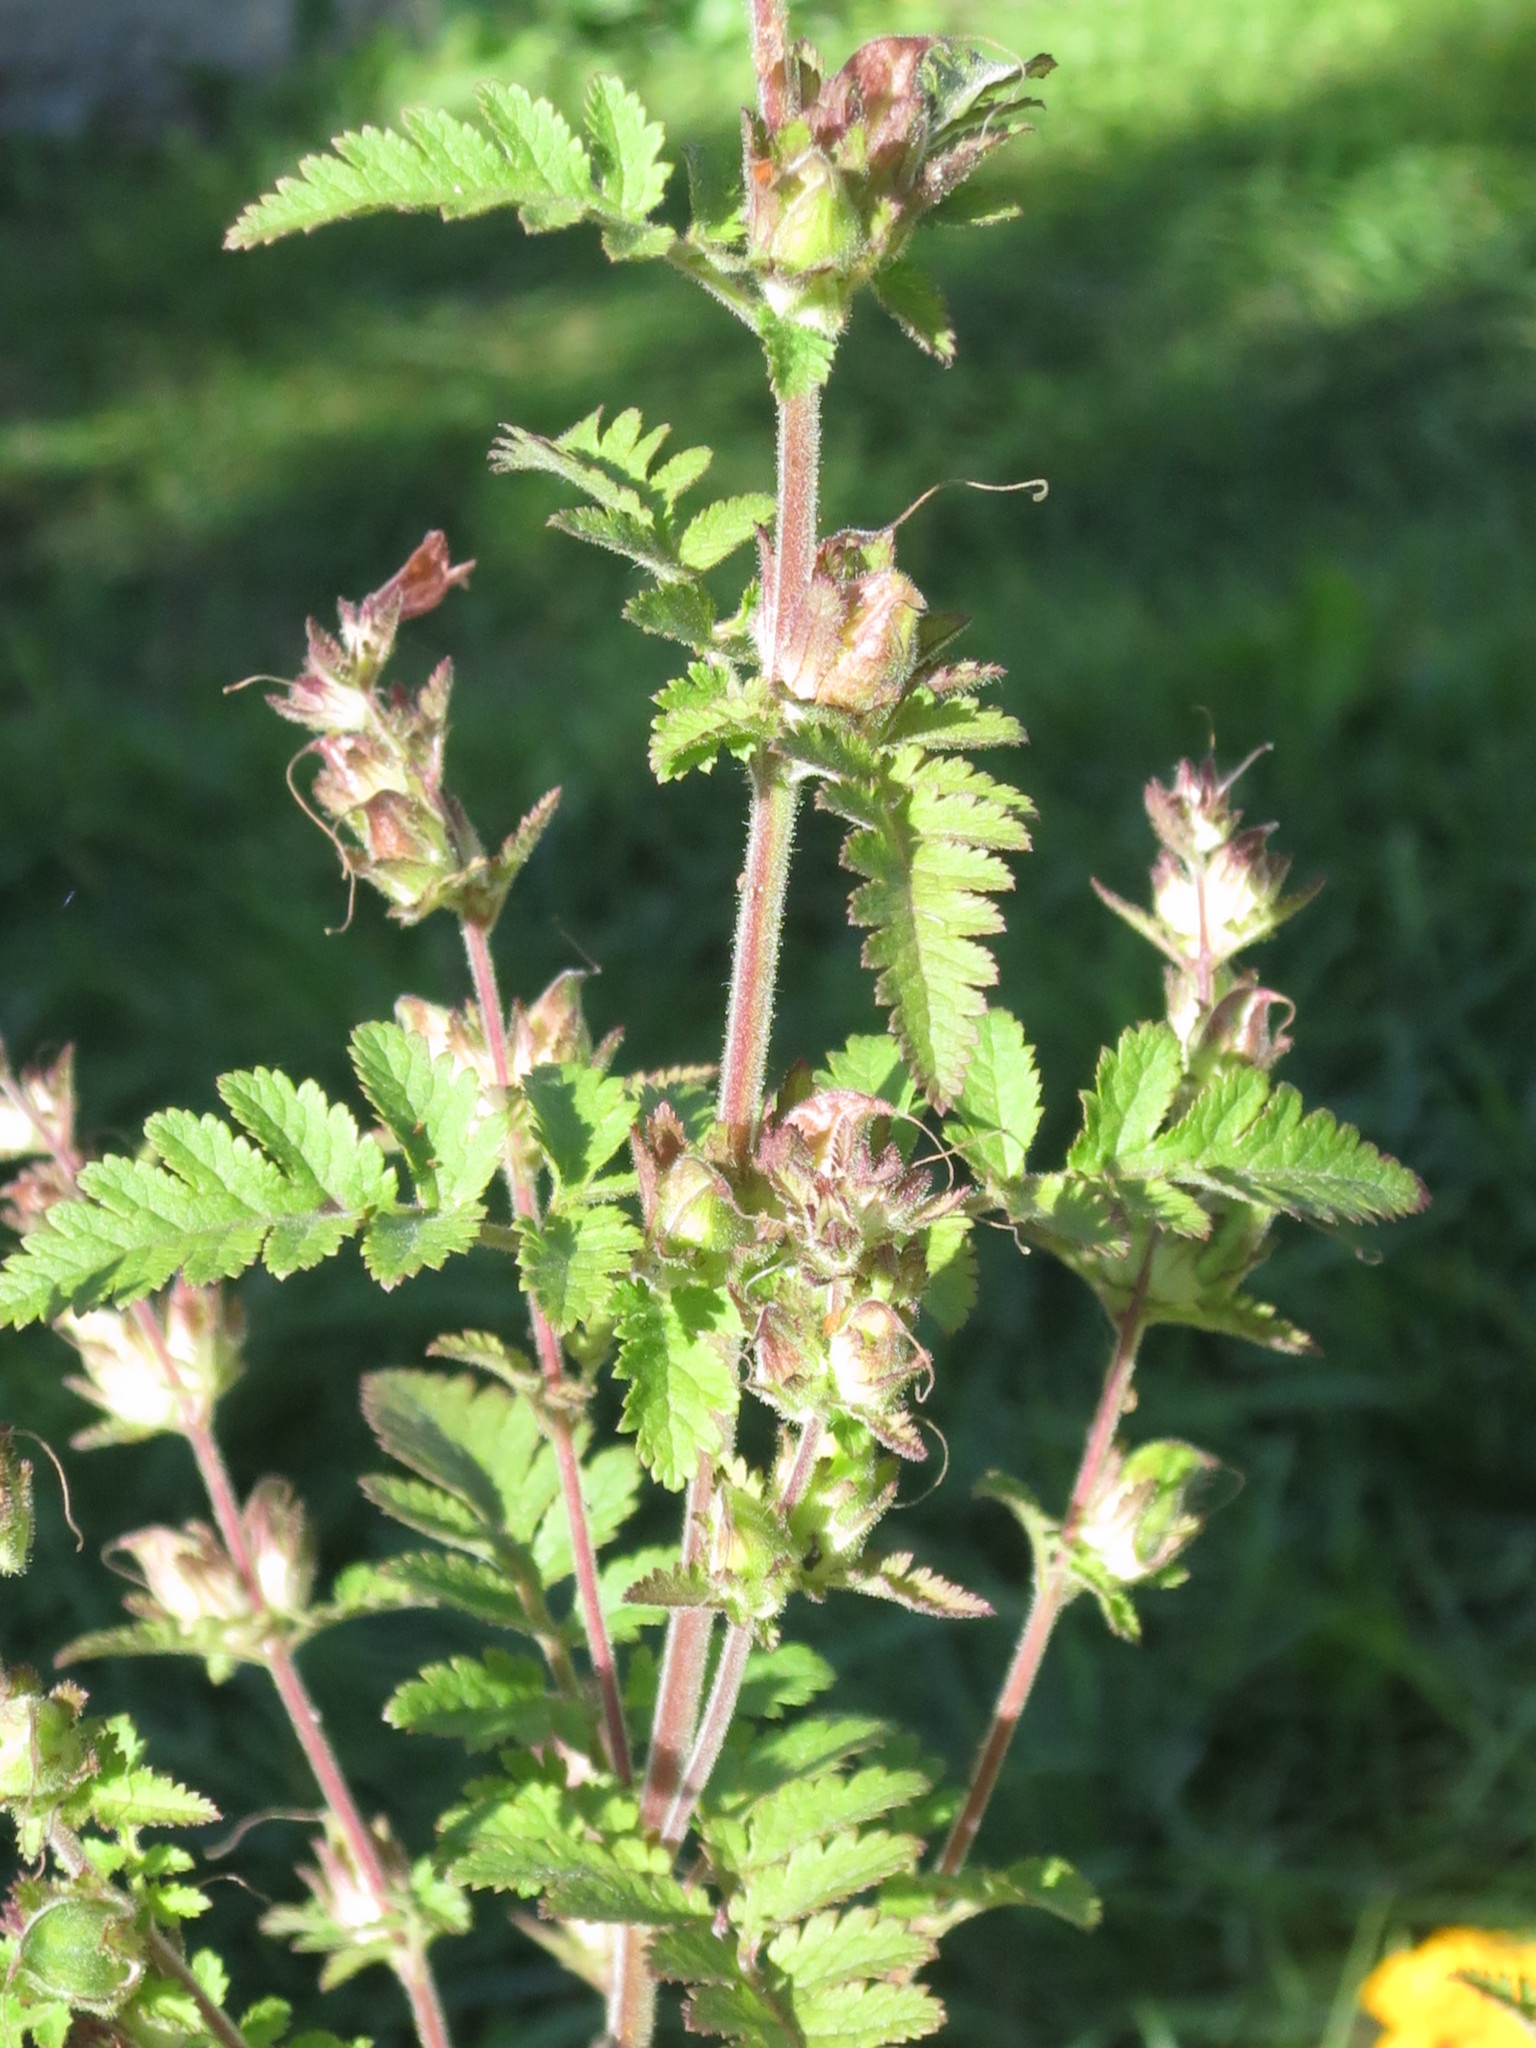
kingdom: Plantae
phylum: Tracheophyta
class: Magnoliopsida
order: Lamiales
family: Orobanchaceae
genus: Phtheirospermum
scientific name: Phtheirospermum japonicum
